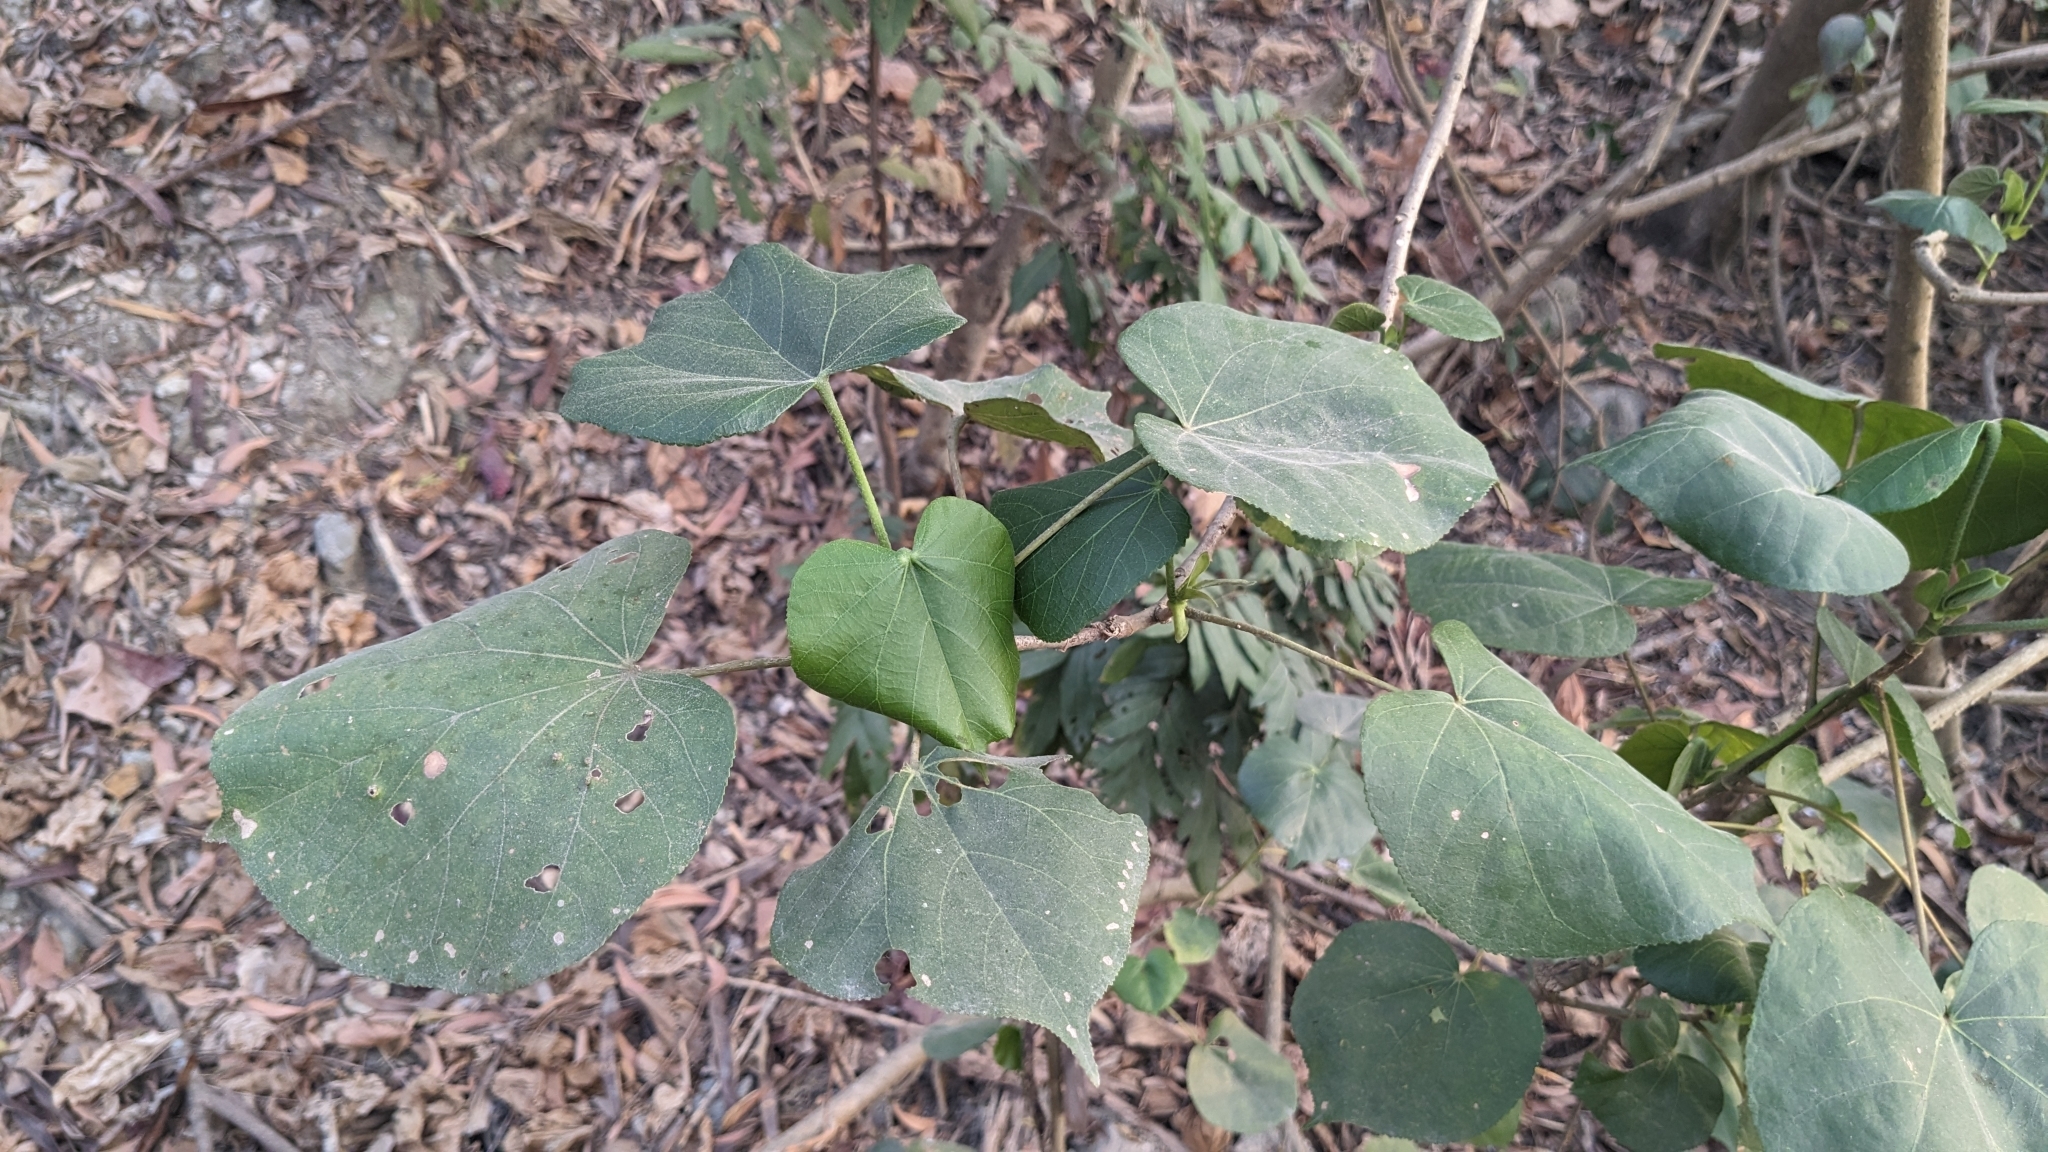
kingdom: Plantae
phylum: Tracheophyta
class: Magnoliopsida
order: Malvales
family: Malvaceae
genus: Talipariti
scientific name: Talipariti tiliaceum
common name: Sea hibiscus
